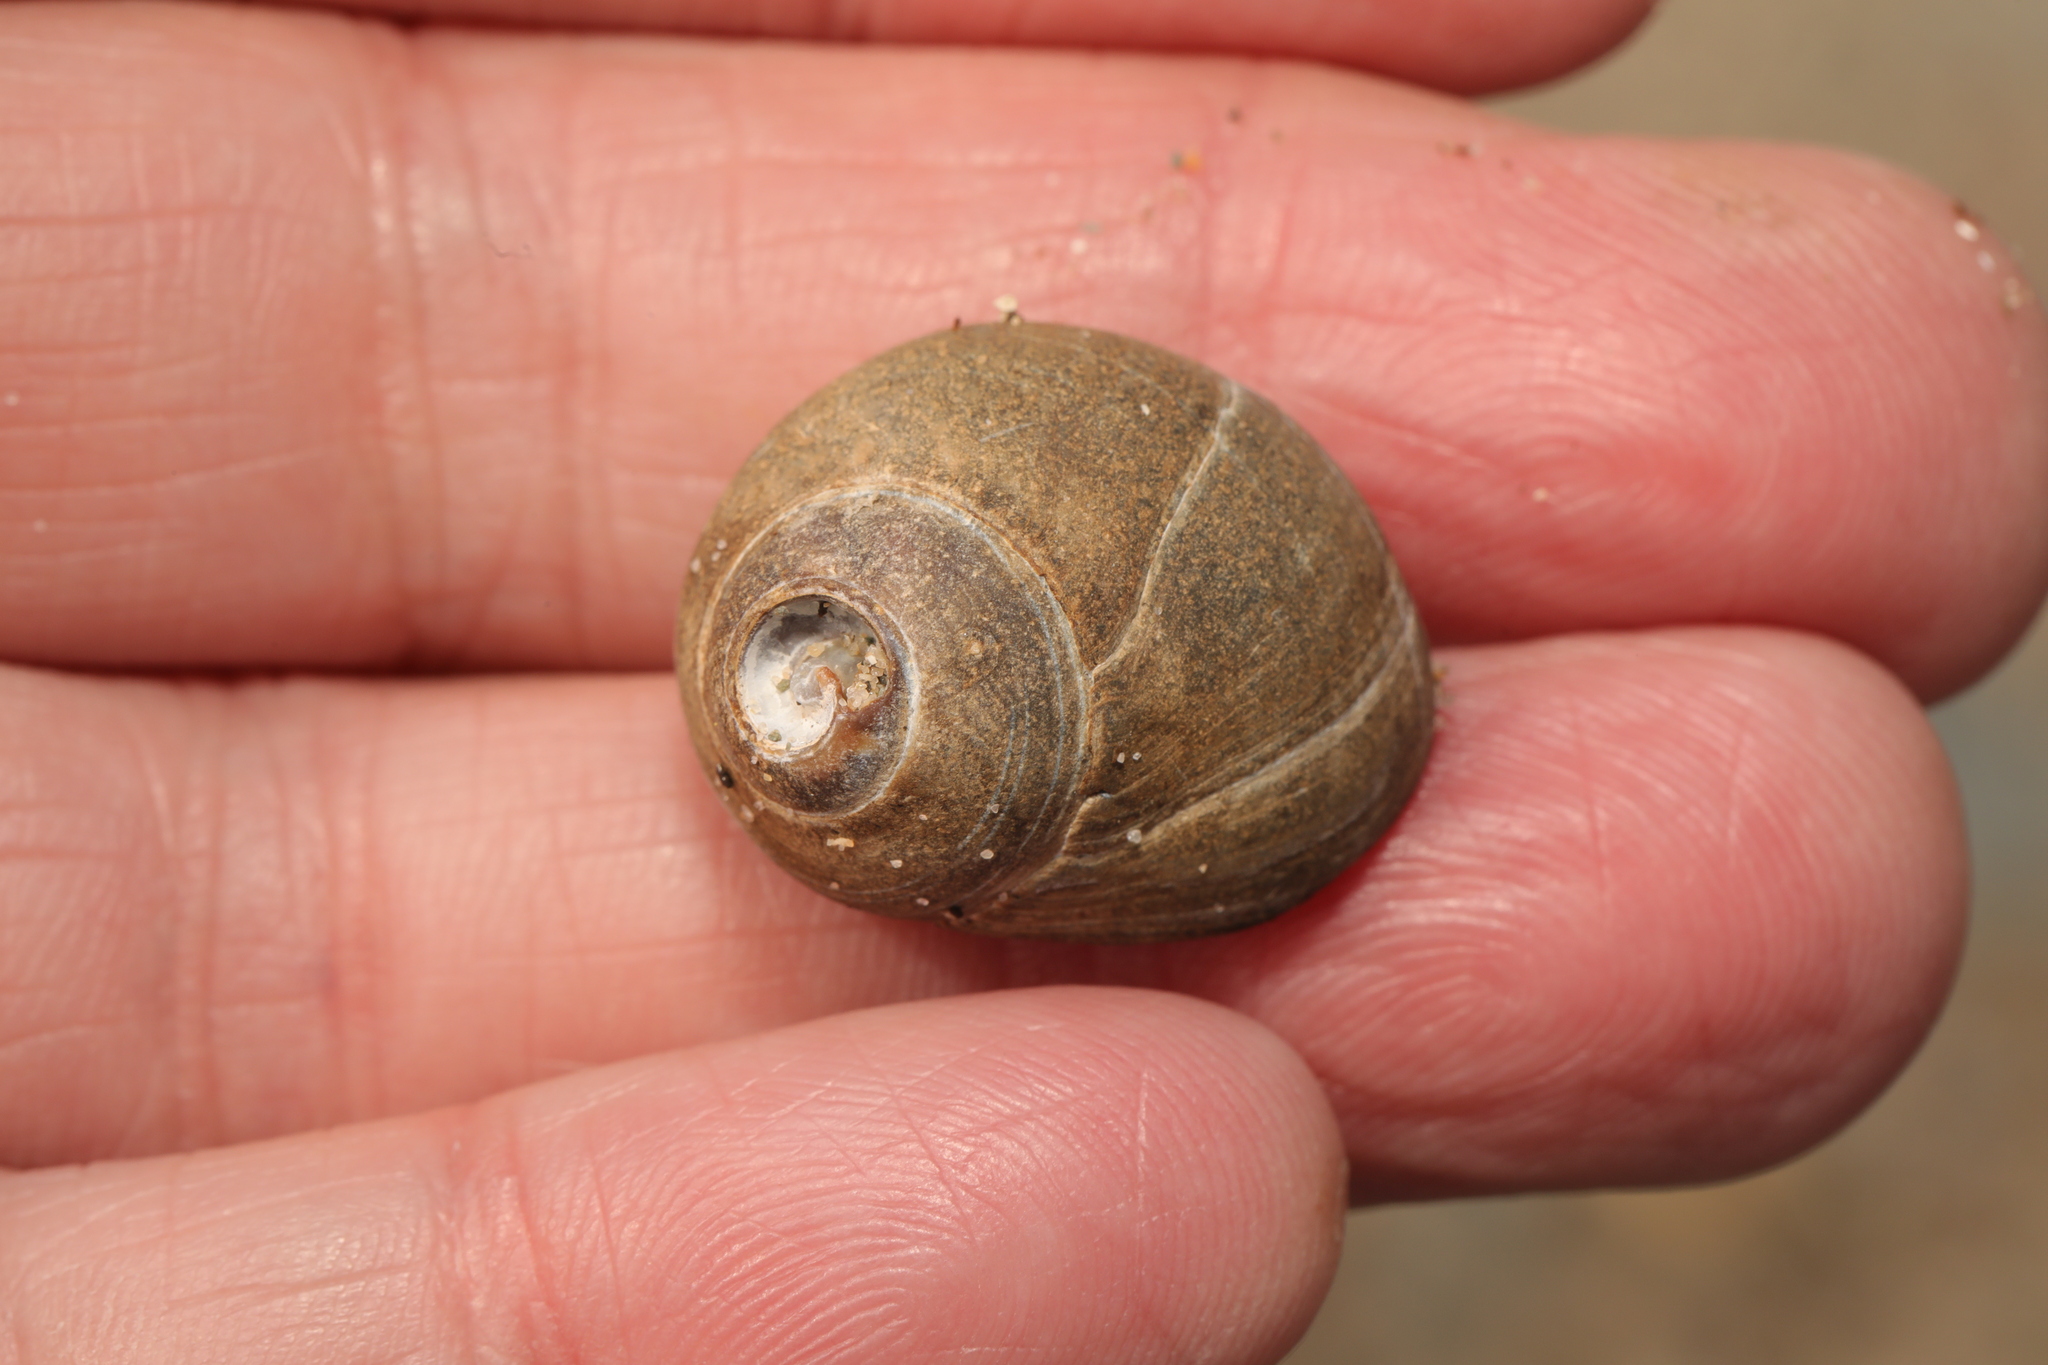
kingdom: Animalia
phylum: Mollusca
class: Gastropoda
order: Littorinimorpha
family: Littorinidae
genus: Littorina
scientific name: Littorina littorea
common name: Common periwinkle
